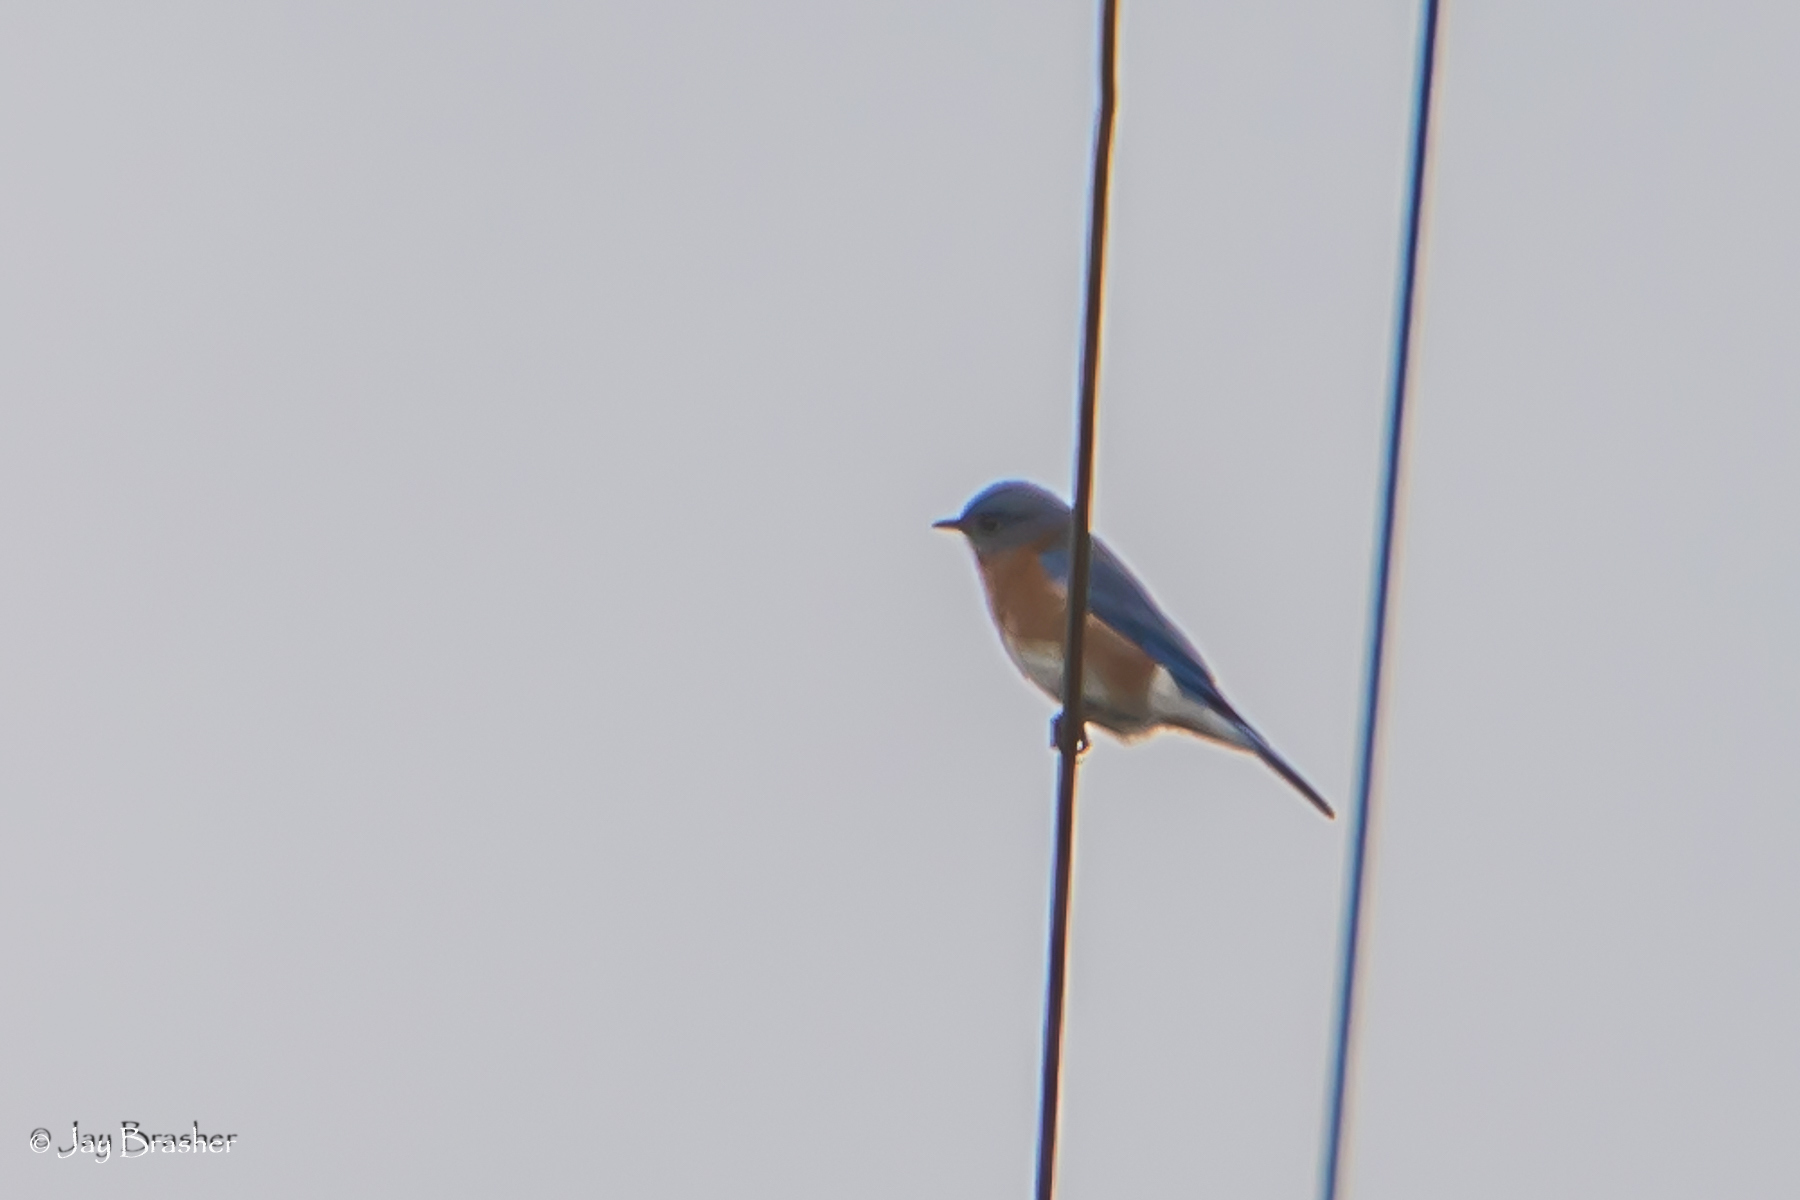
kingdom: Animalia
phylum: Chordata
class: Aves
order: Passeriformes
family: Turdidae
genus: Sialia
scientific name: Sialia sialis
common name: Eastern bluebird
